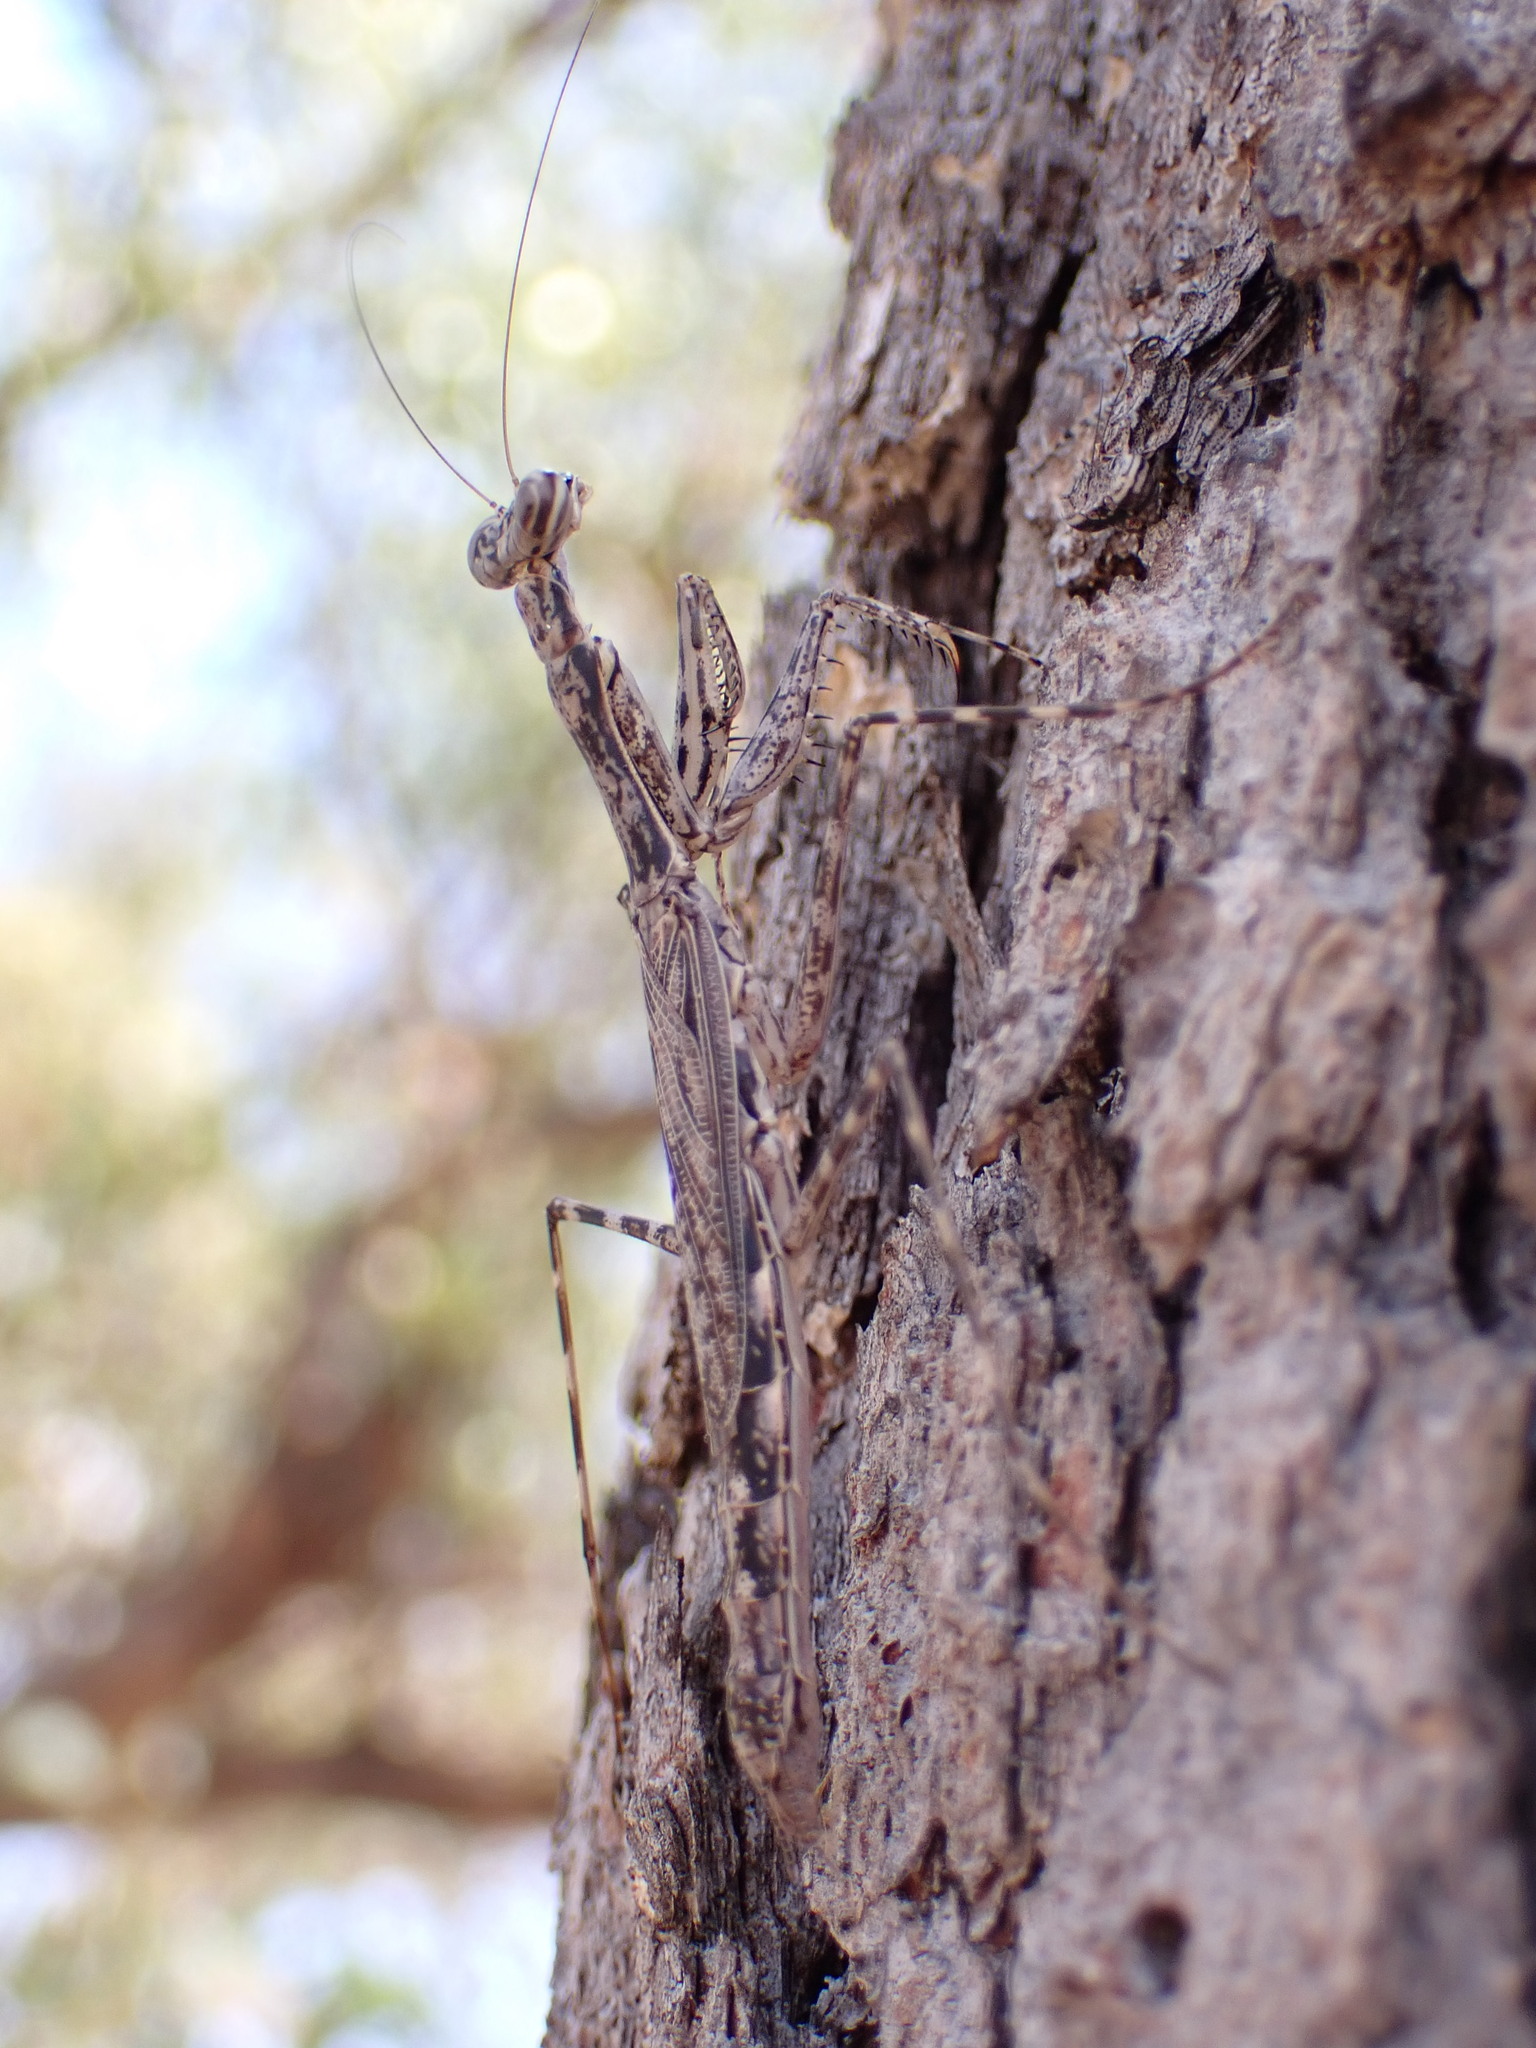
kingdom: Animalia
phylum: Arthropoda
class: Insecta
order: Mantodea
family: Nanomantidae
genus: Ciulfina
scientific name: Ciulfina biseriata
